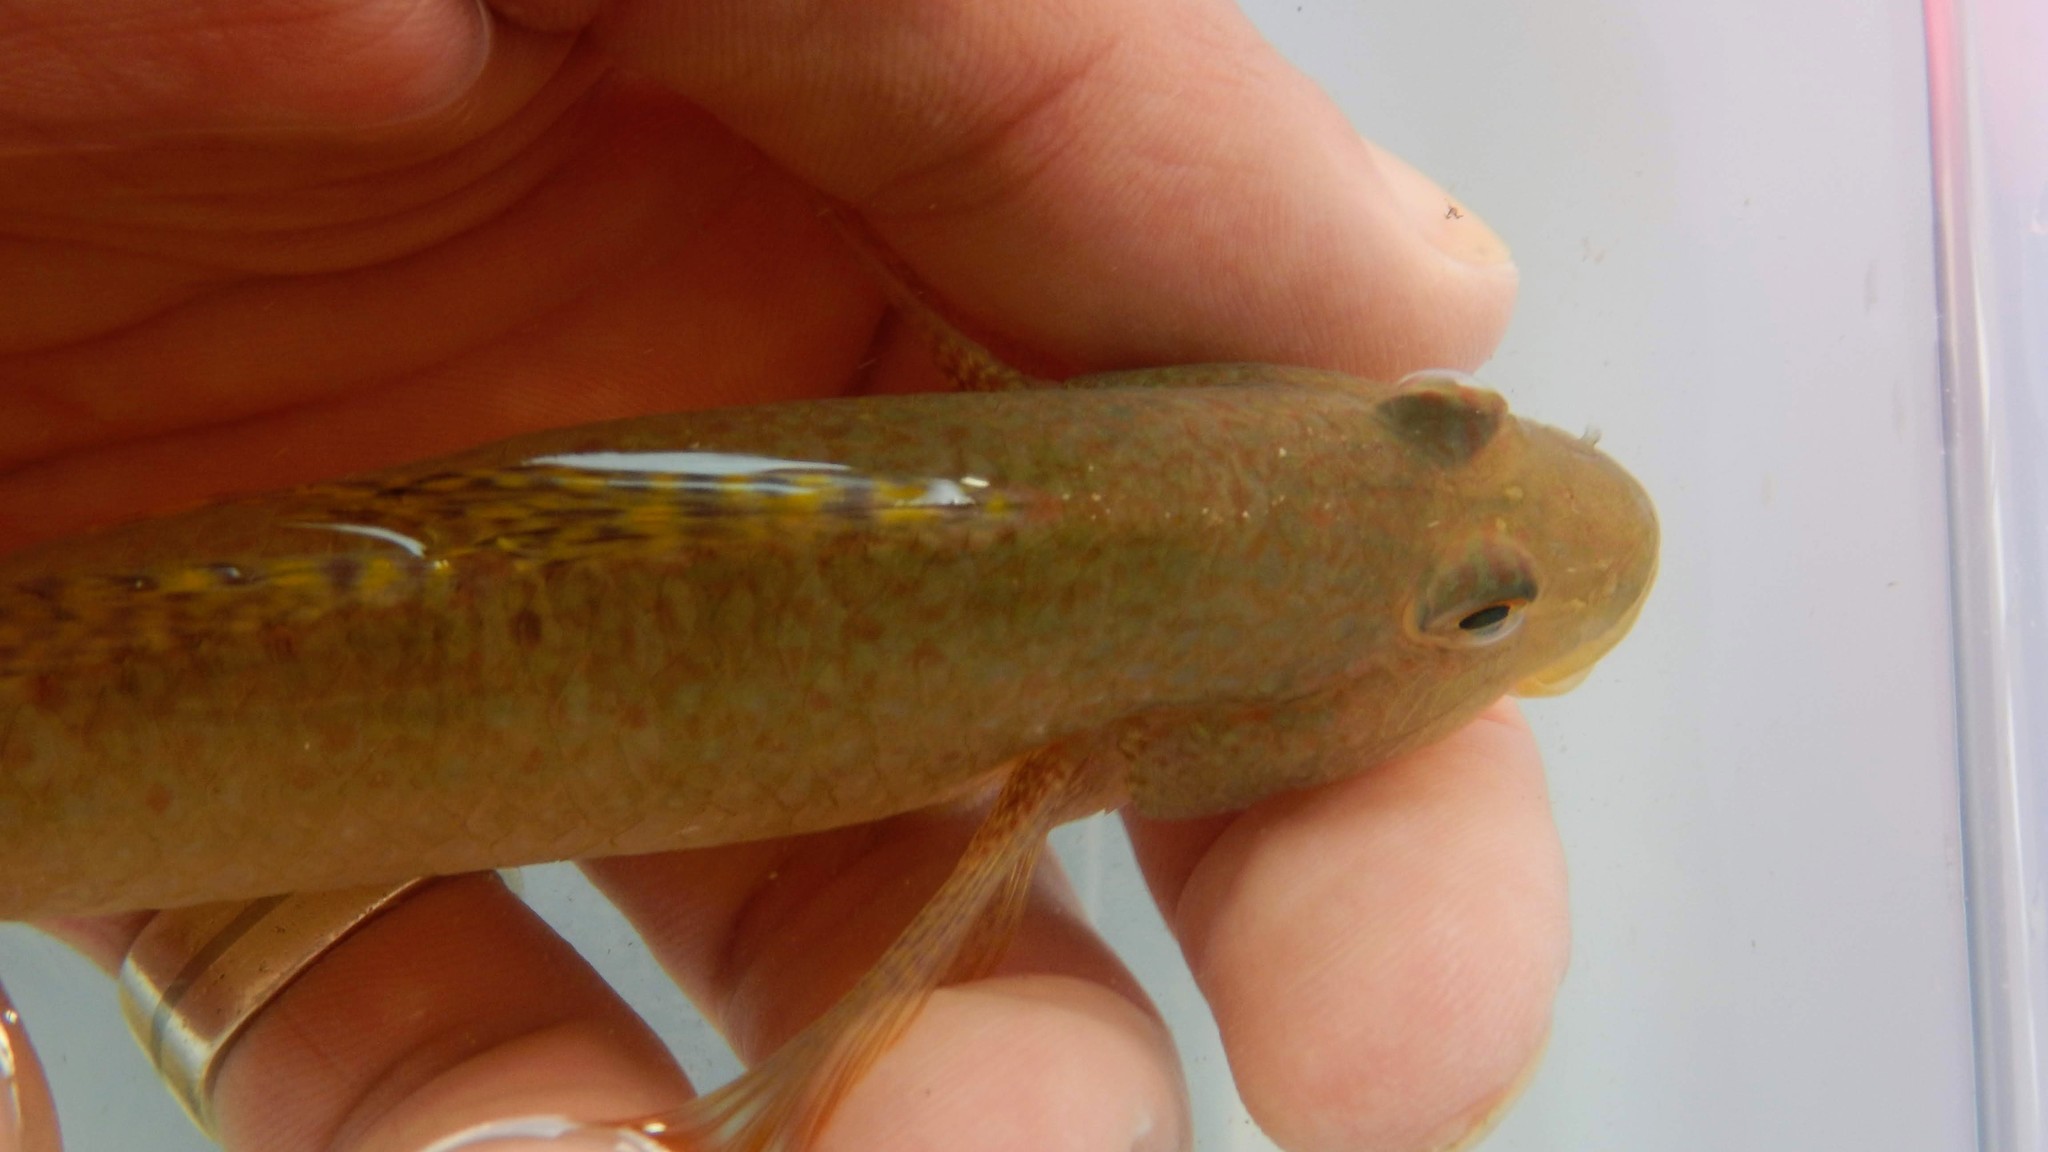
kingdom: Animalia
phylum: Chordata
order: Perciformes
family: Gobiidae
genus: Exyrias
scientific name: Exyrias puntang
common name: Puntang goby
